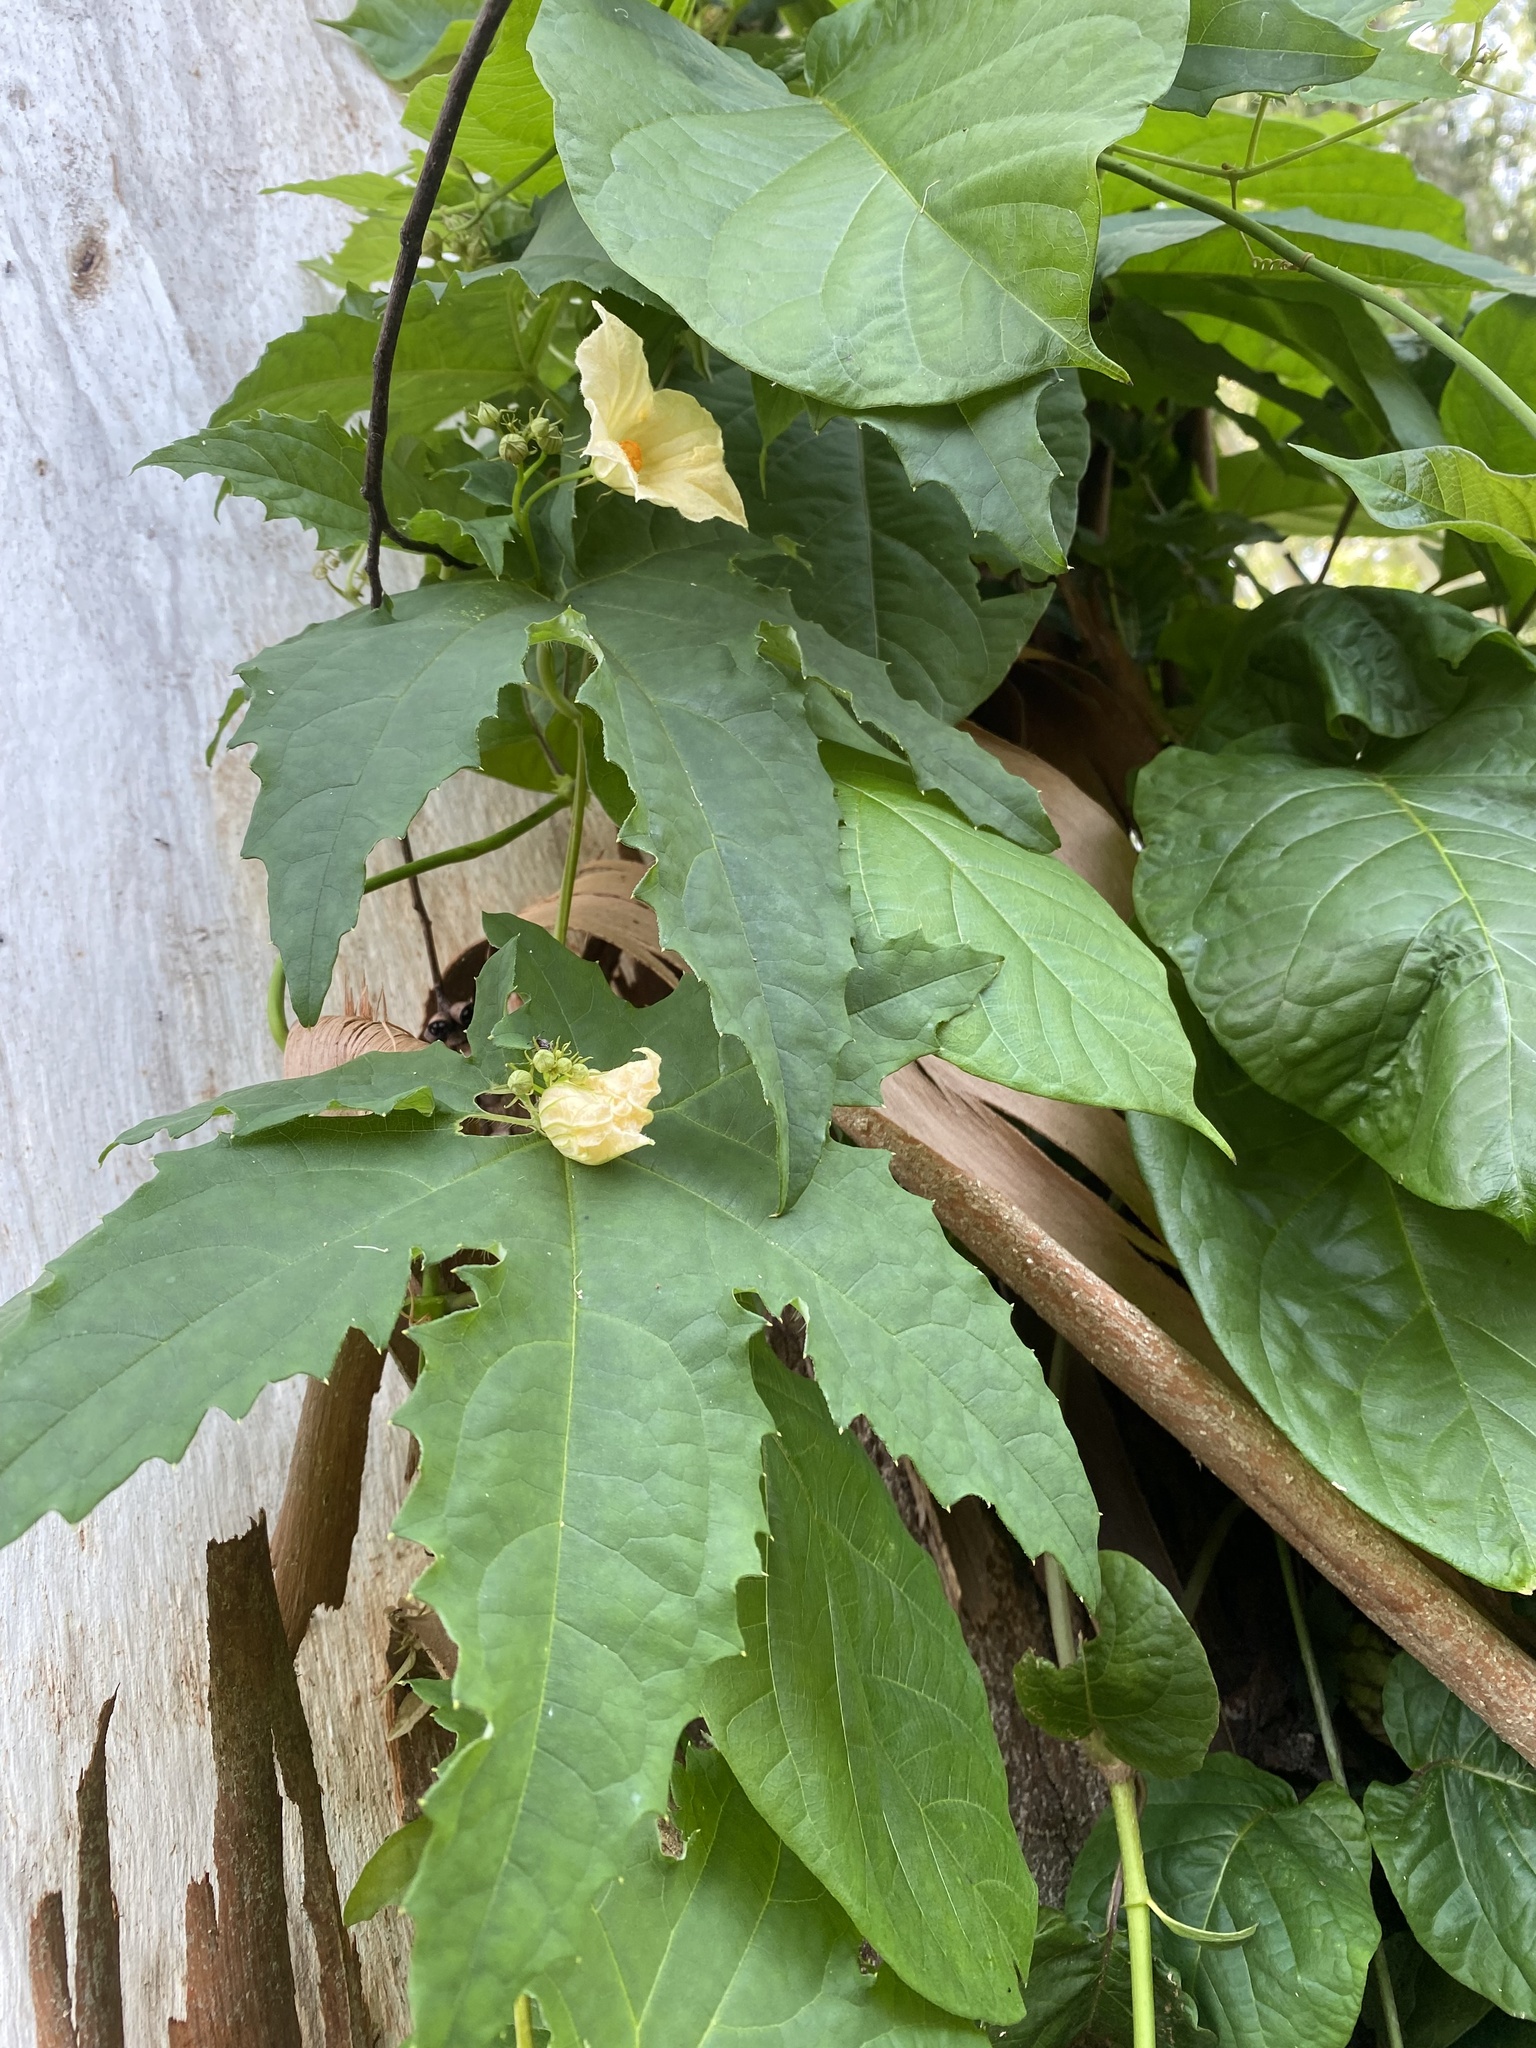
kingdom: Plantae
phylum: Tracheophyta
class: Magnoliopsida
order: Cucurbitales
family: Cucurbitaceae
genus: Coccinia
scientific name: Coccinia palmata
